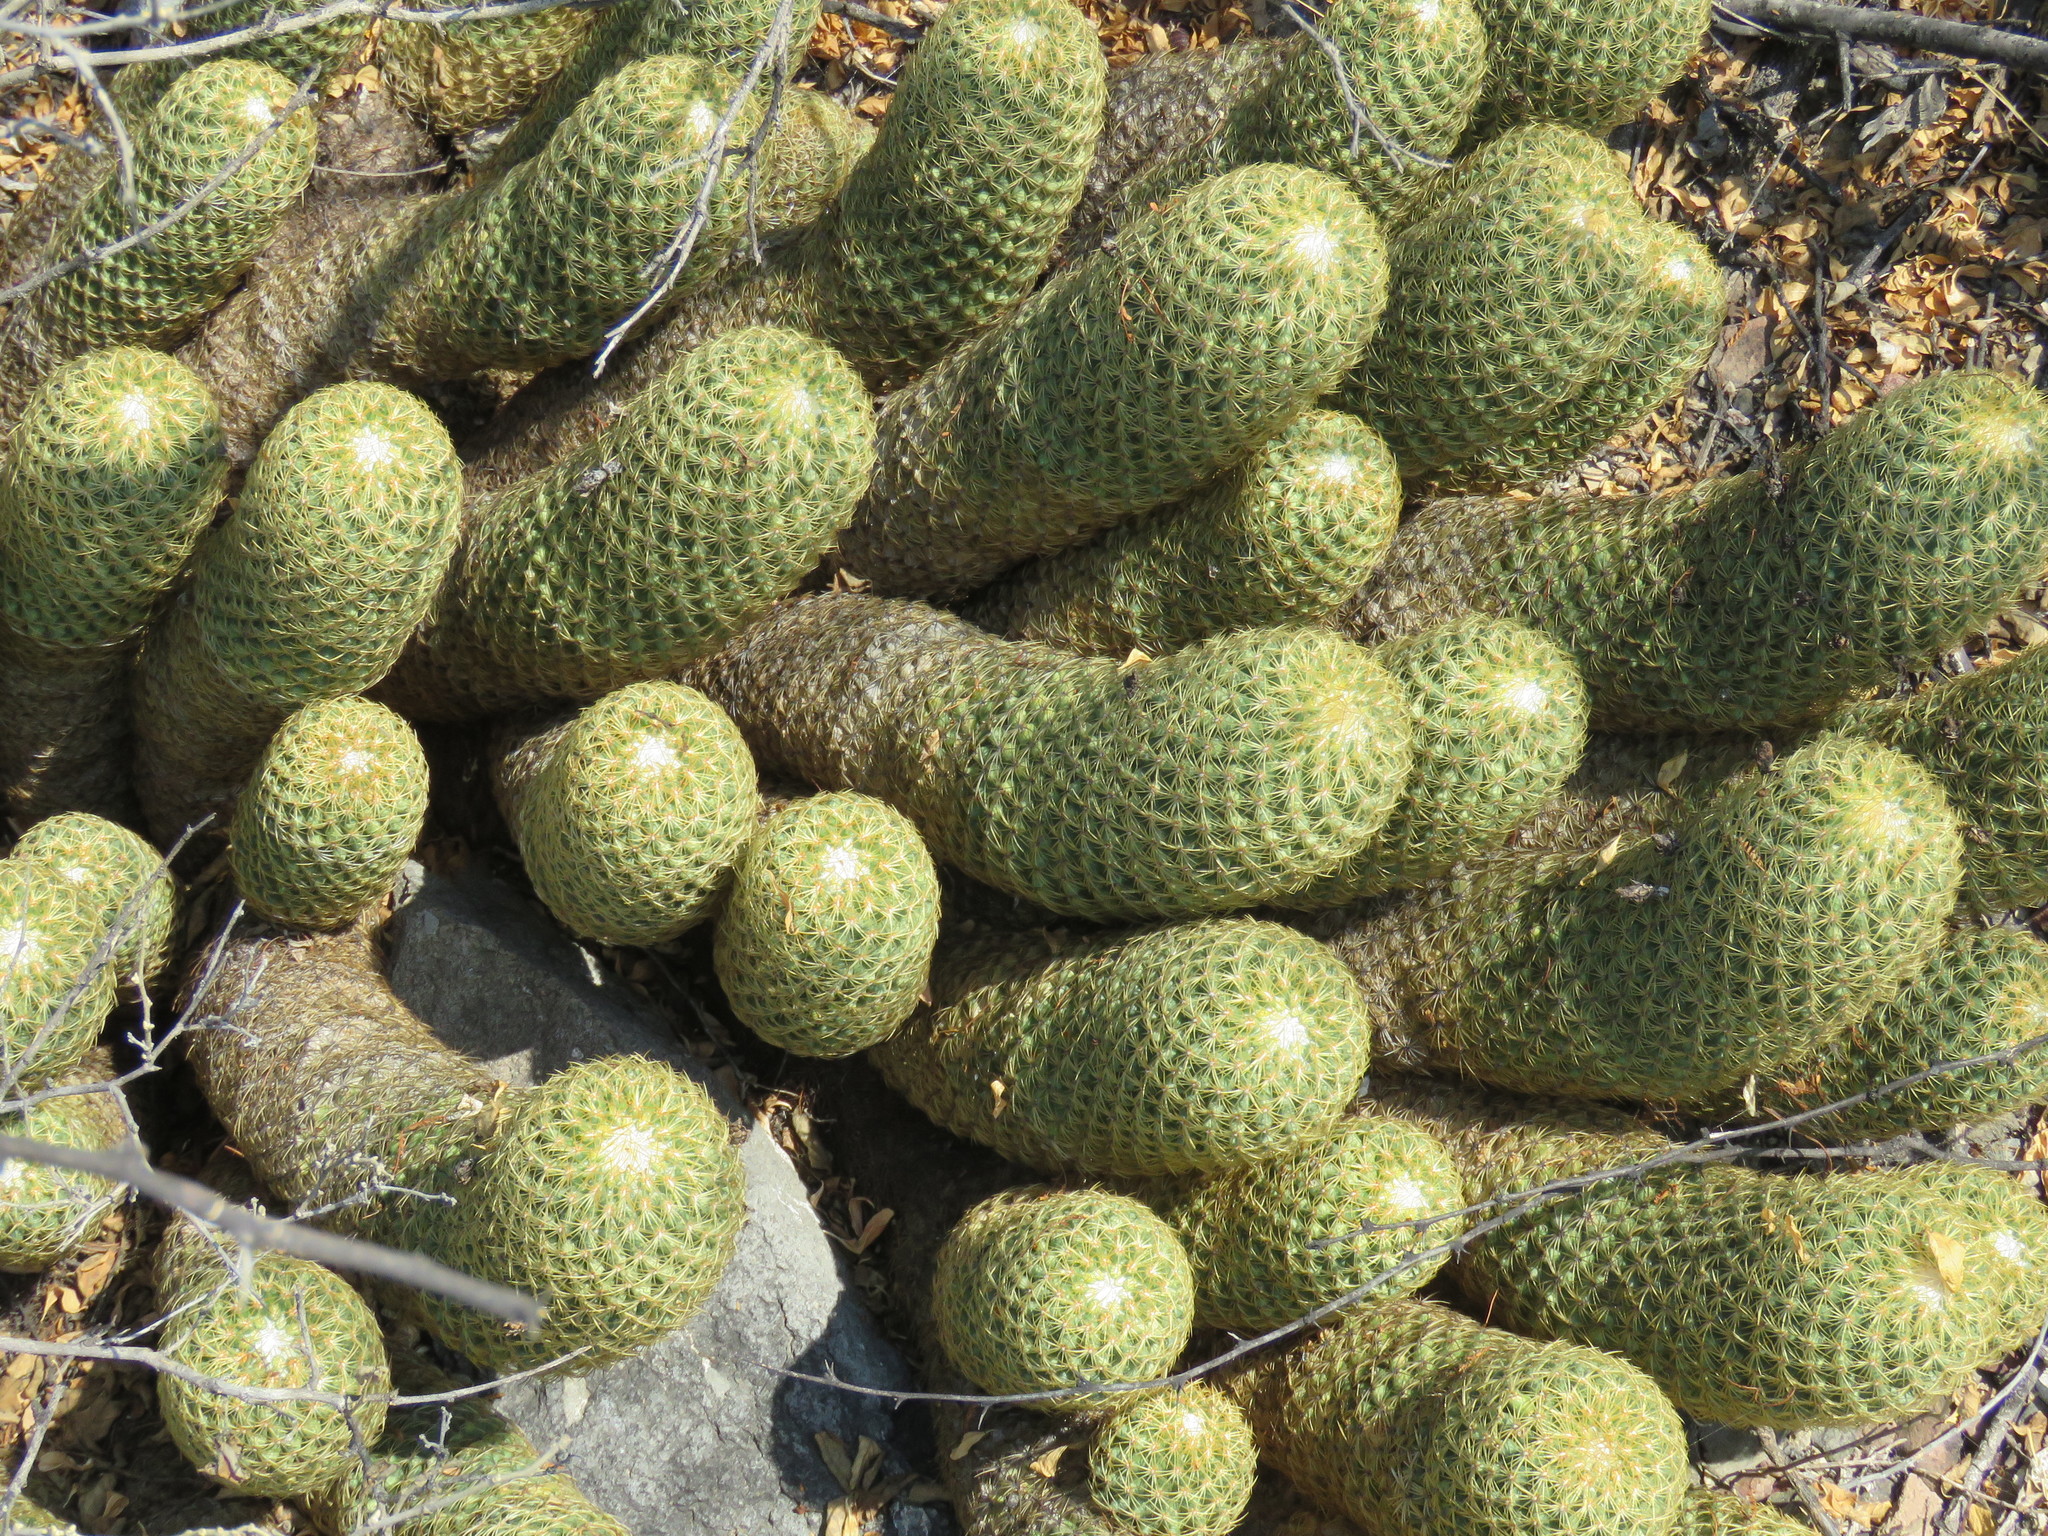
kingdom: Plantae
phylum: Tracheophyta
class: Magnoliopsida
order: Caryophyllales
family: Cactaceae
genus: Coryphantha
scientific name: Coryphantha erecta
